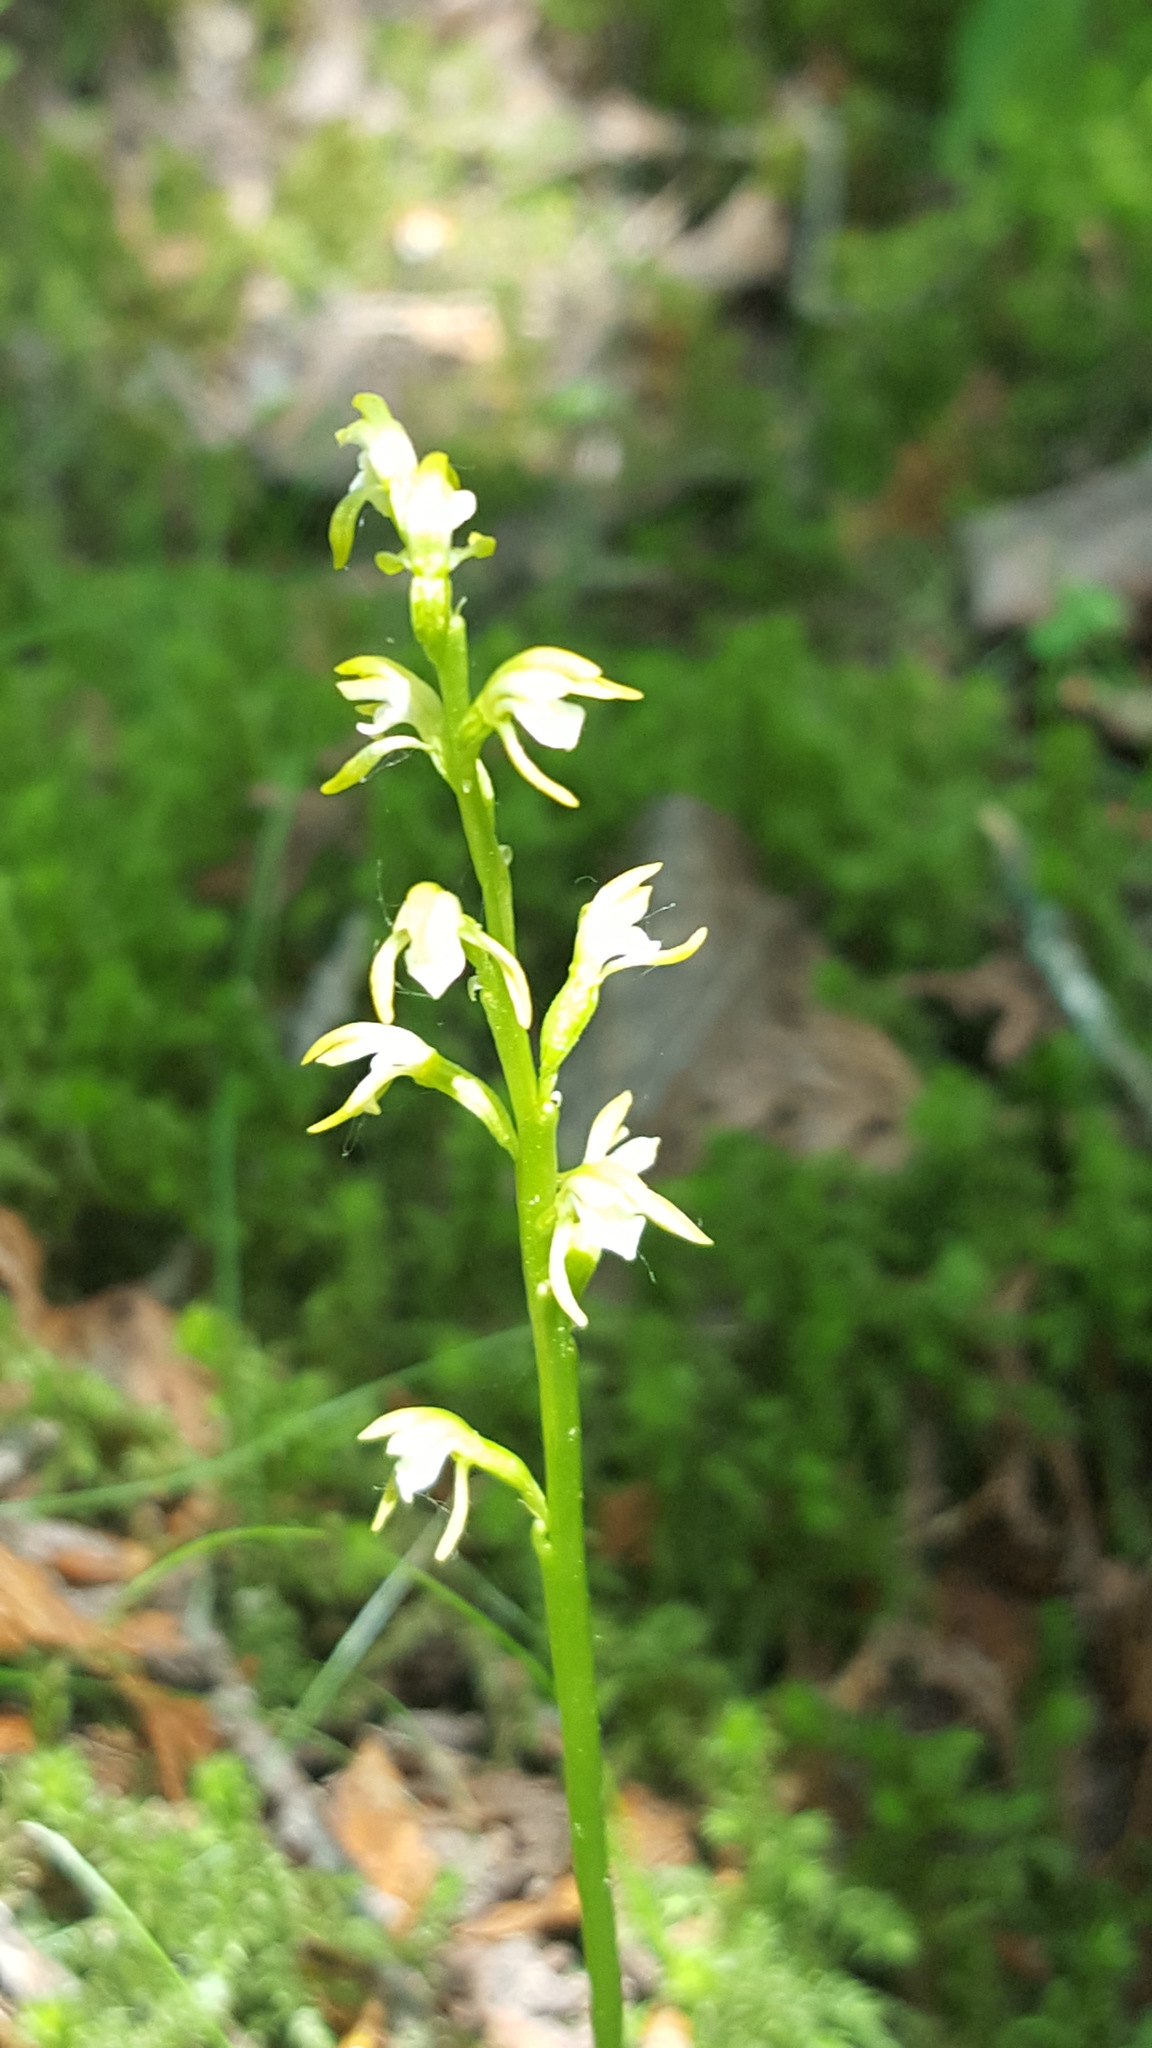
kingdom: Plantae
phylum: Tracheophyta
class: Liliopsida
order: Asparagales
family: Orchidaceae
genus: Corallorhiza
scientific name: Corallorhiza trifida
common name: Yellow coralroot
